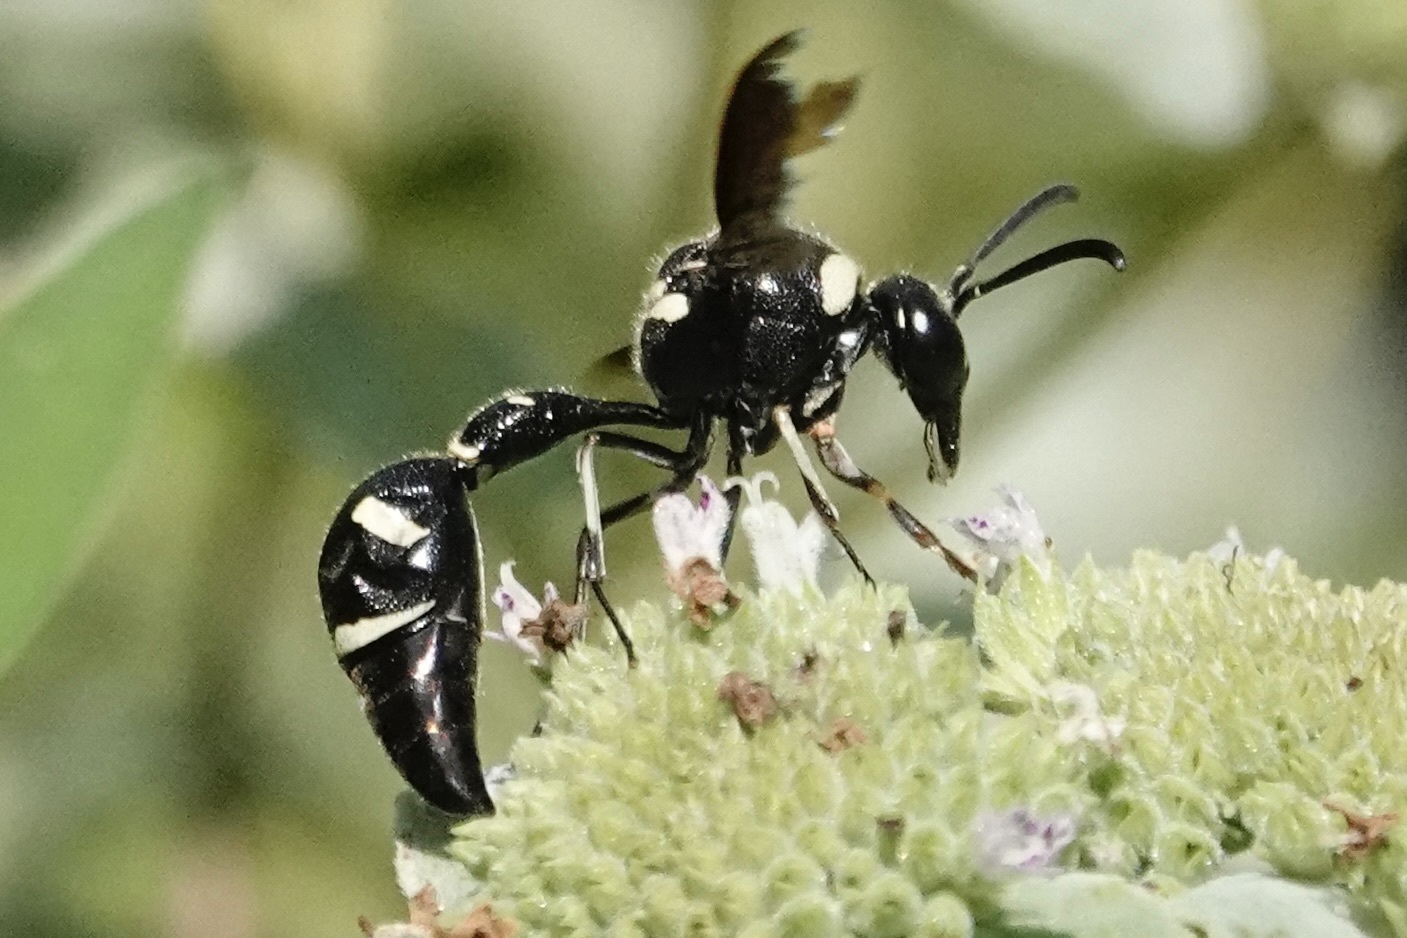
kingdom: Animalia
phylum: Arthropoda
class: Insecta
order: Hymenoptera
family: Vespidae
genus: Eumenes
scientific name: Eumenes fraternus
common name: Fraternal potter wasp
